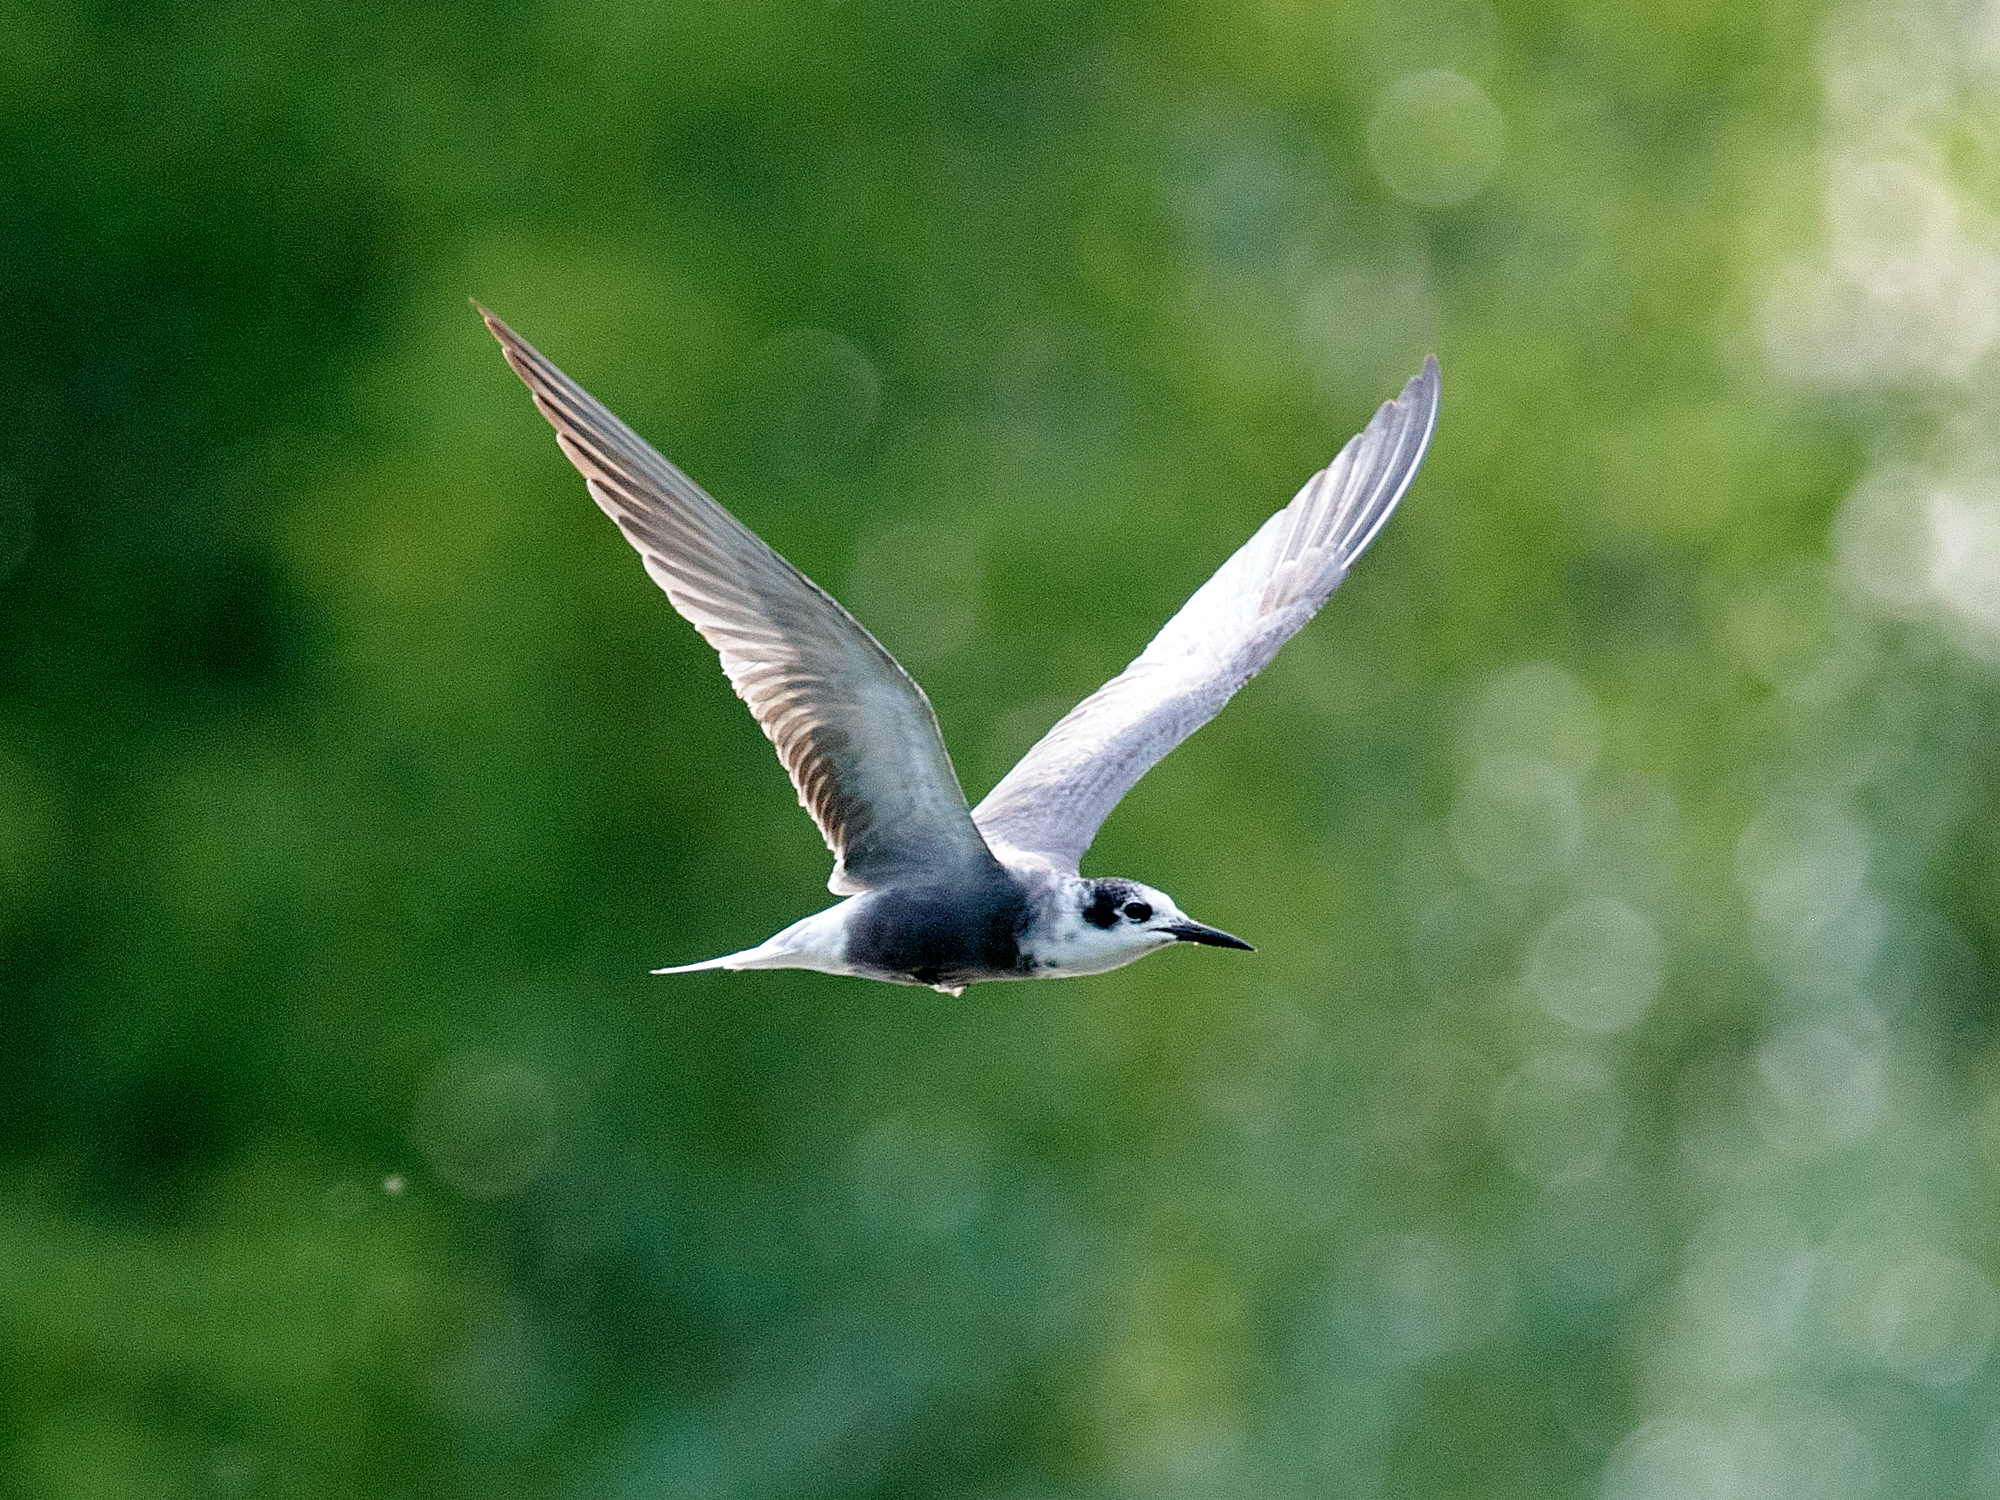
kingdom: Animalia
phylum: Chordata
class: Aves
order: Charadriiformes
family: Laridae
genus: Chlidonias
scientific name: Chlidonias niger
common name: Black tern
